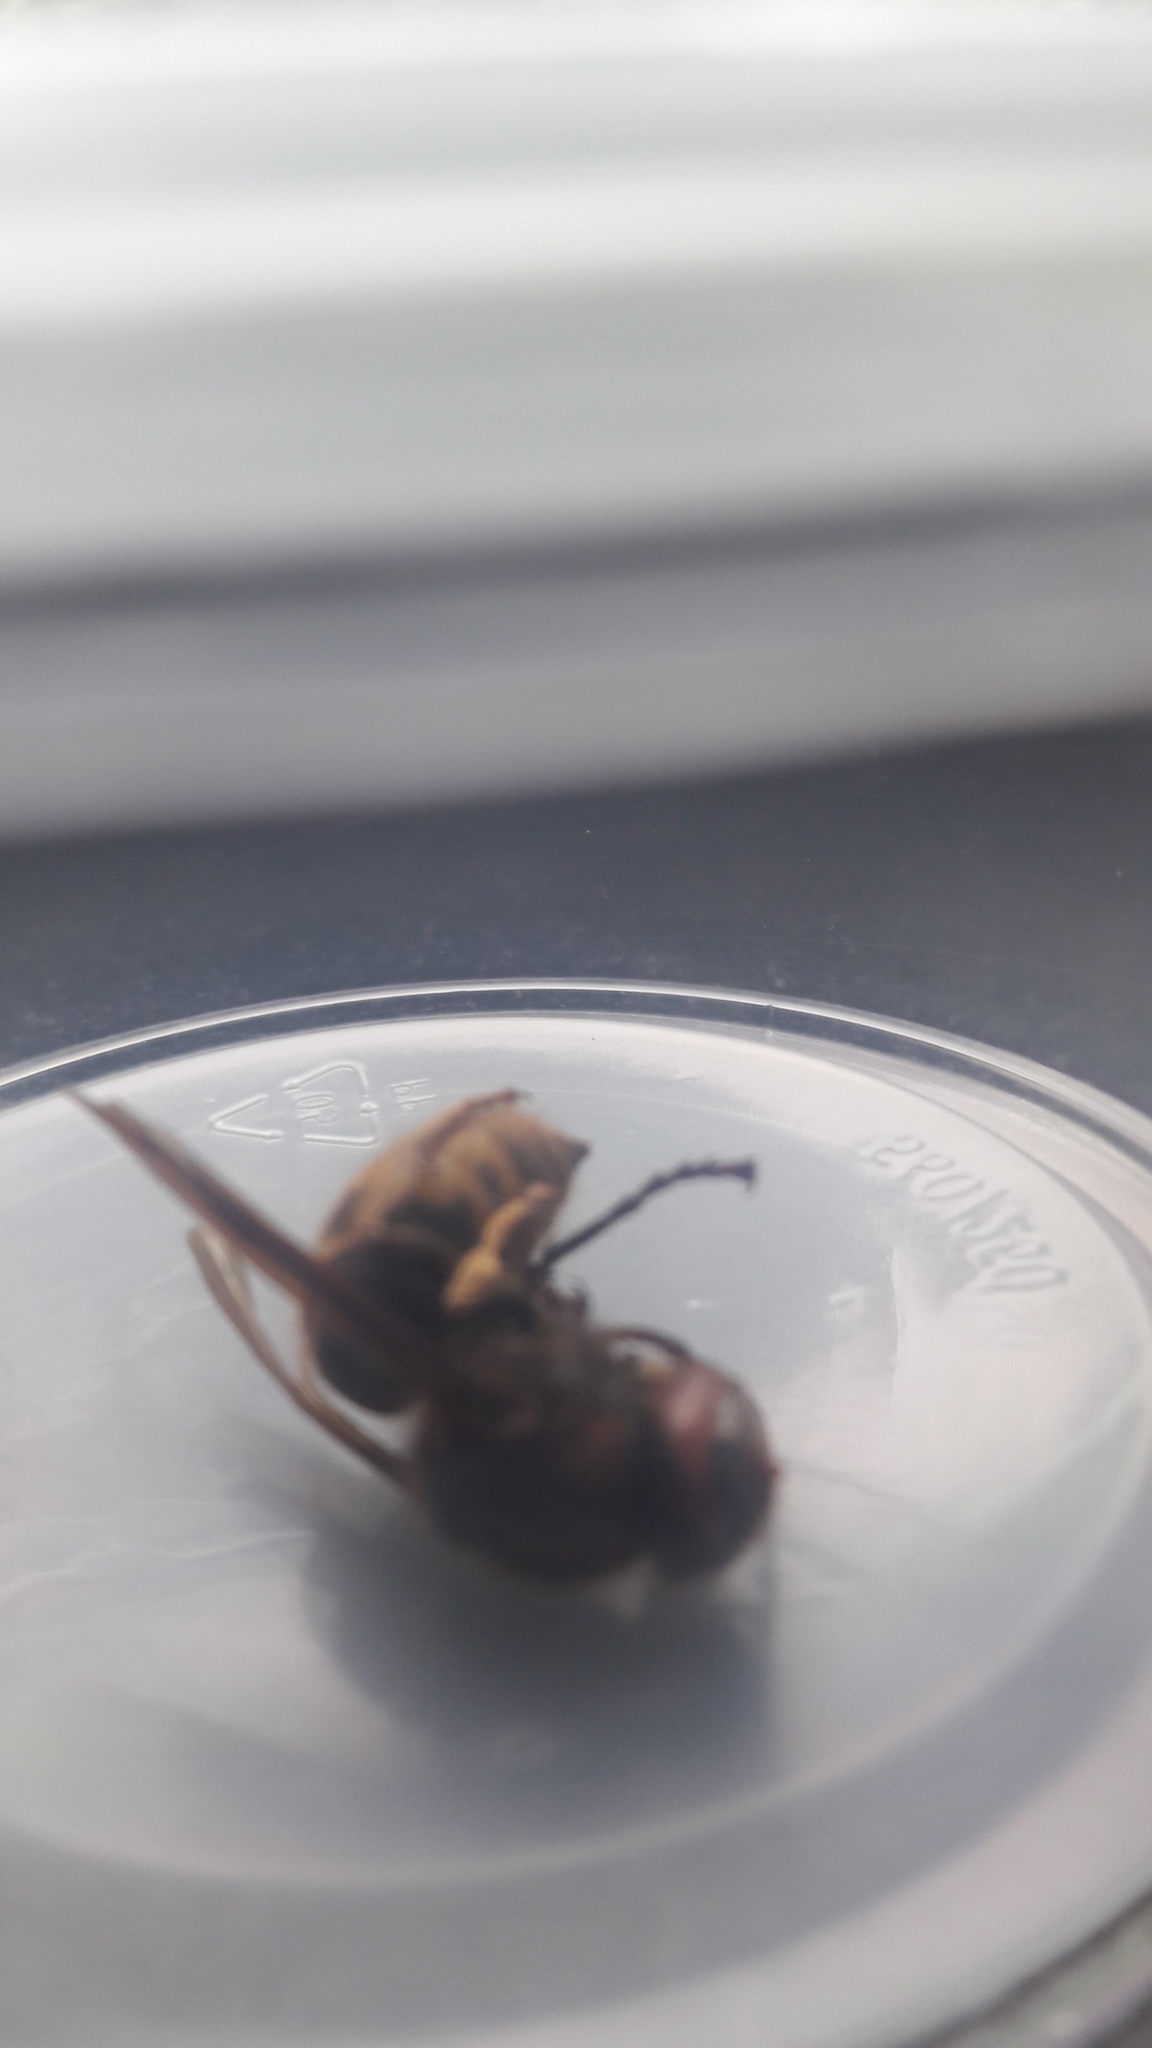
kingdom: Animalia
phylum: Arthropoda
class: Insecta
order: Hymenoptera
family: Vespidae
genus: Vespa
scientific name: Vespa crabro
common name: Hornet
